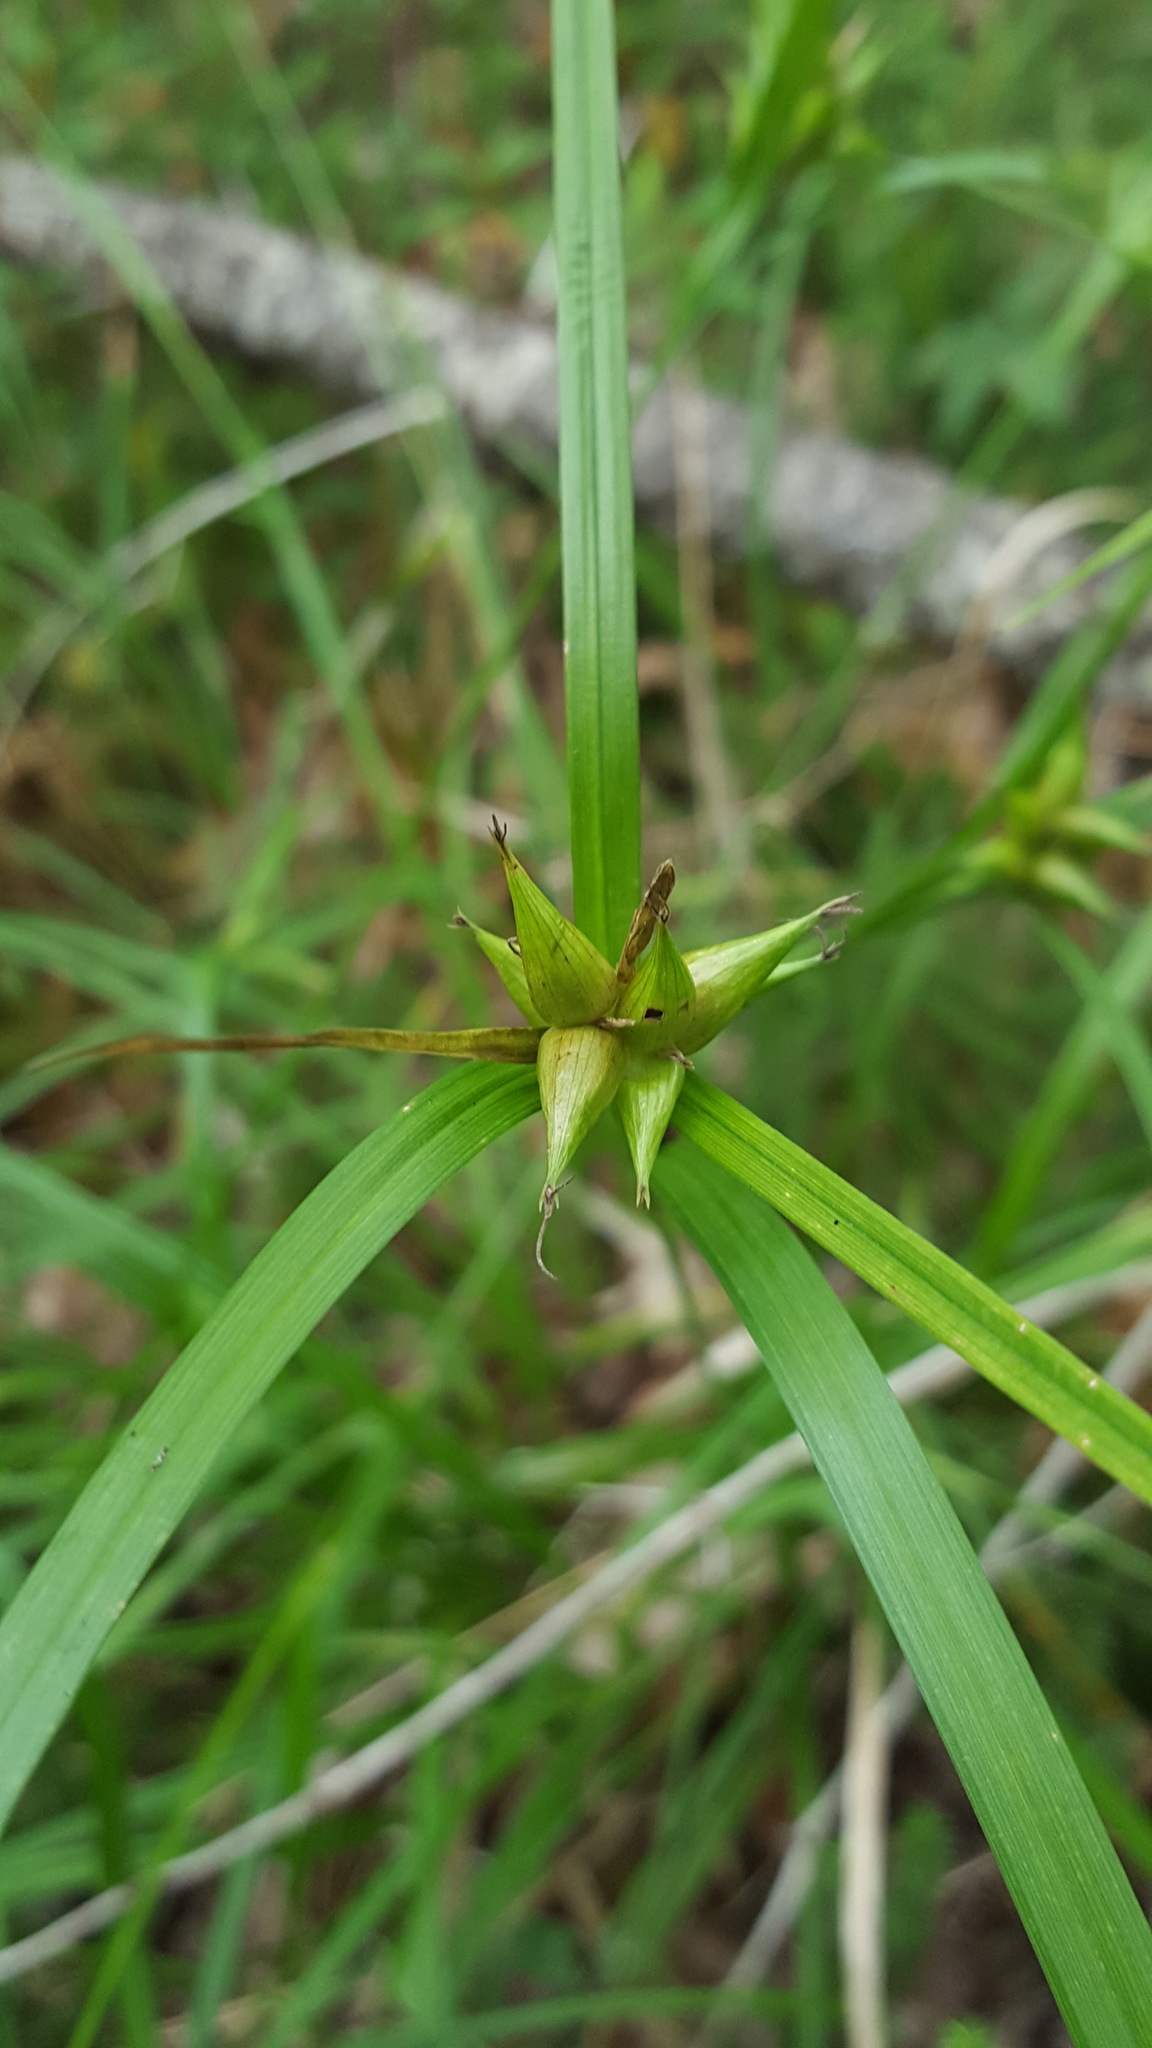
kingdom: Plantae
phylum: Tracheophyta
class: Liliopsida
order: Poales
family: Cyperaceae
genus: Carex
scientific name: Carex intumescens
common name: Greater bladder sedge
